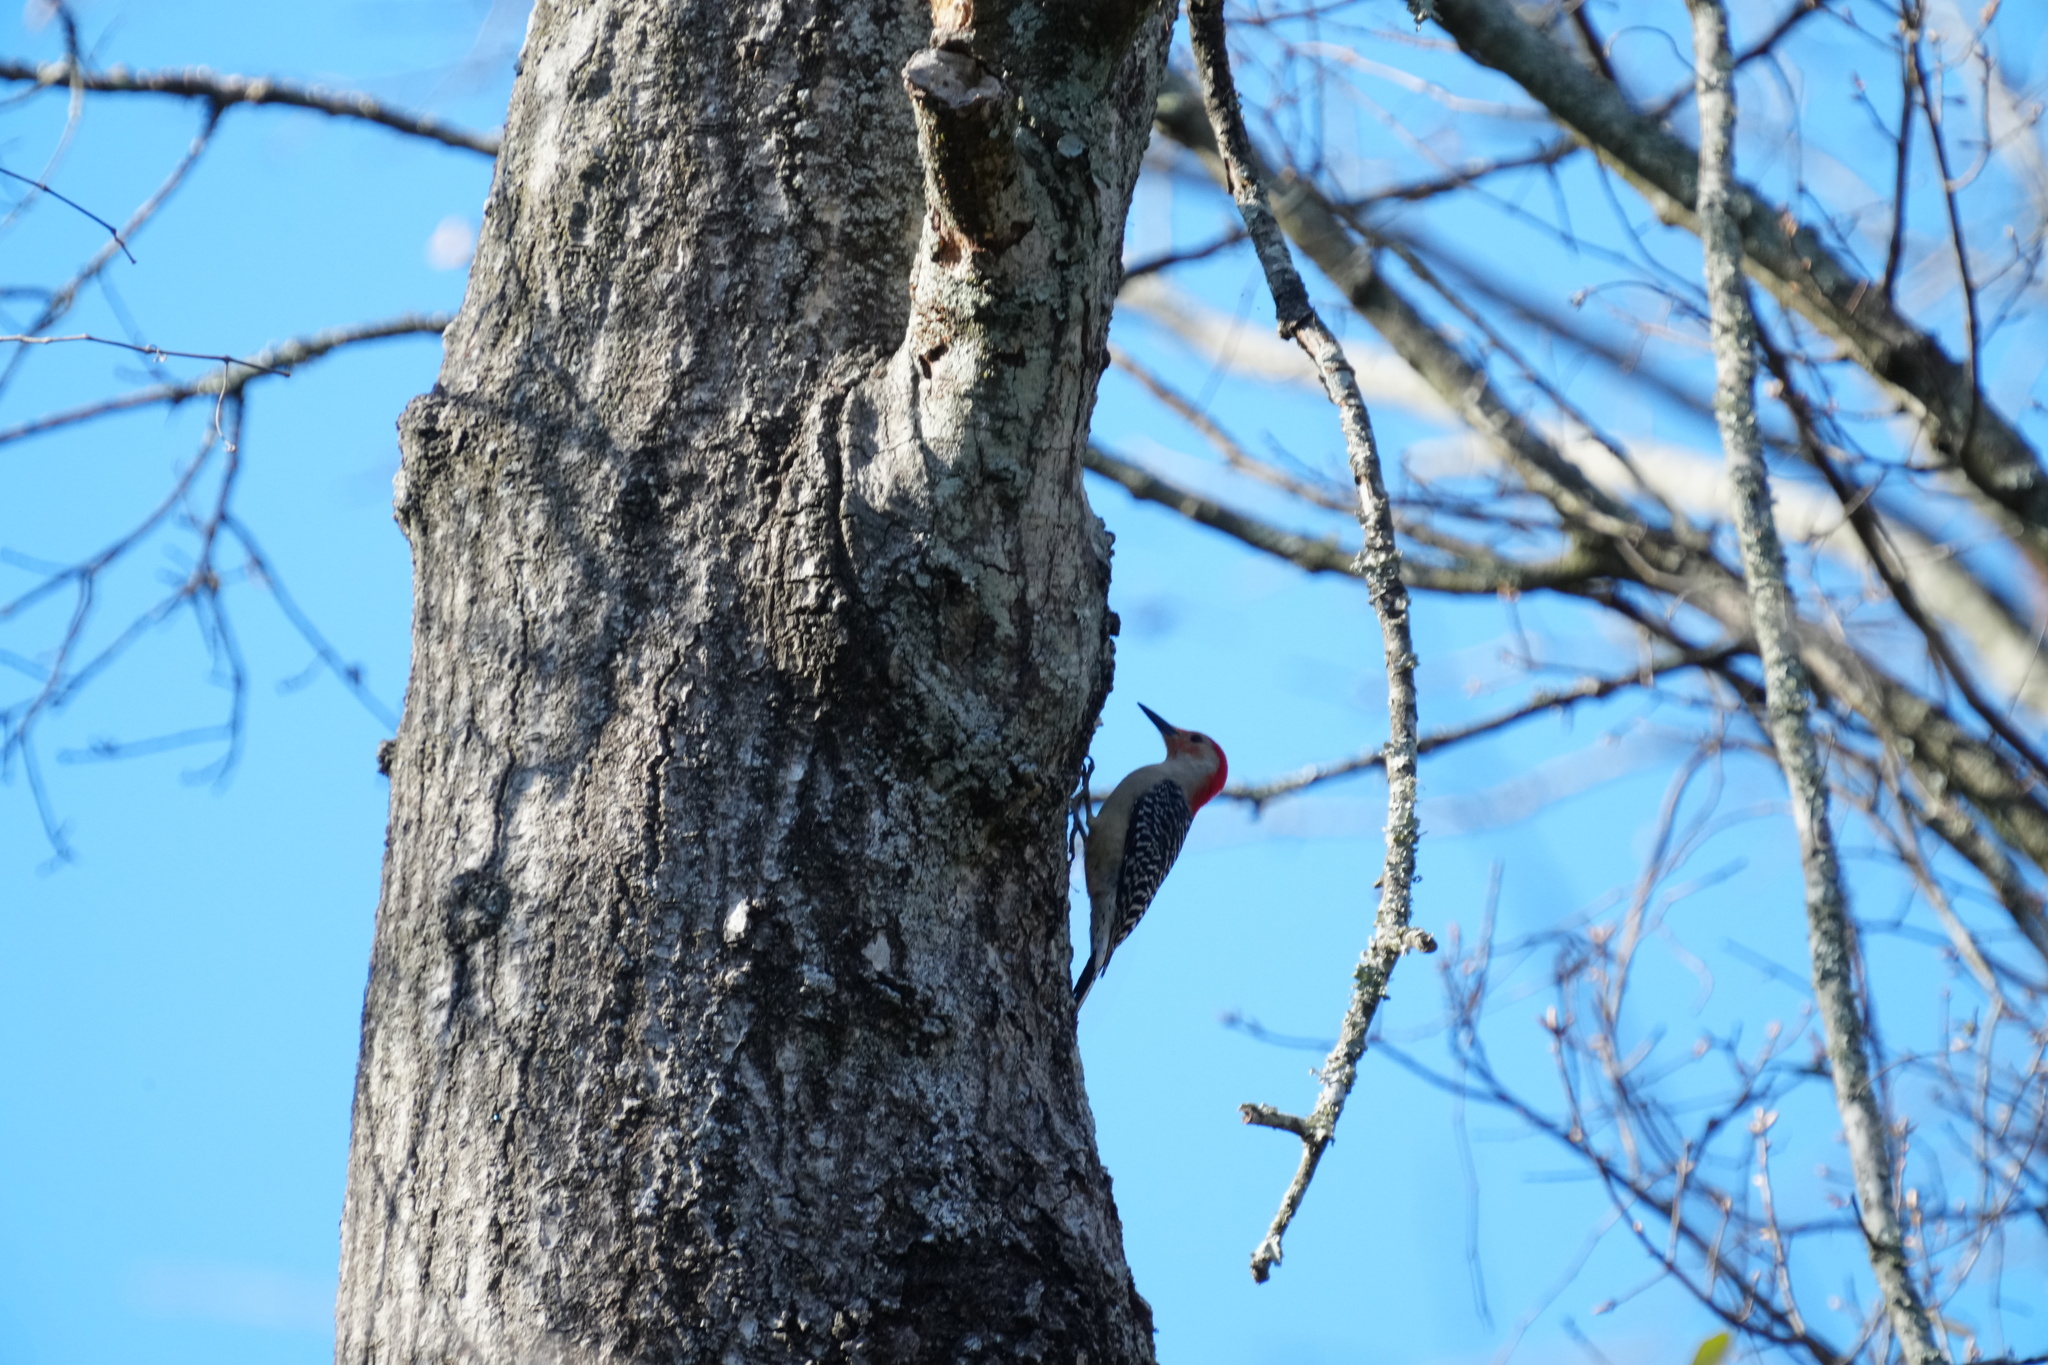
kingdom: Animalia
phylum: Chordata
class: Aves
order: Piciformes
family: Picidae
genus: Melanerpes
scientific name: Melanerpes carolinus
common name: Red-bellied woodpecker
